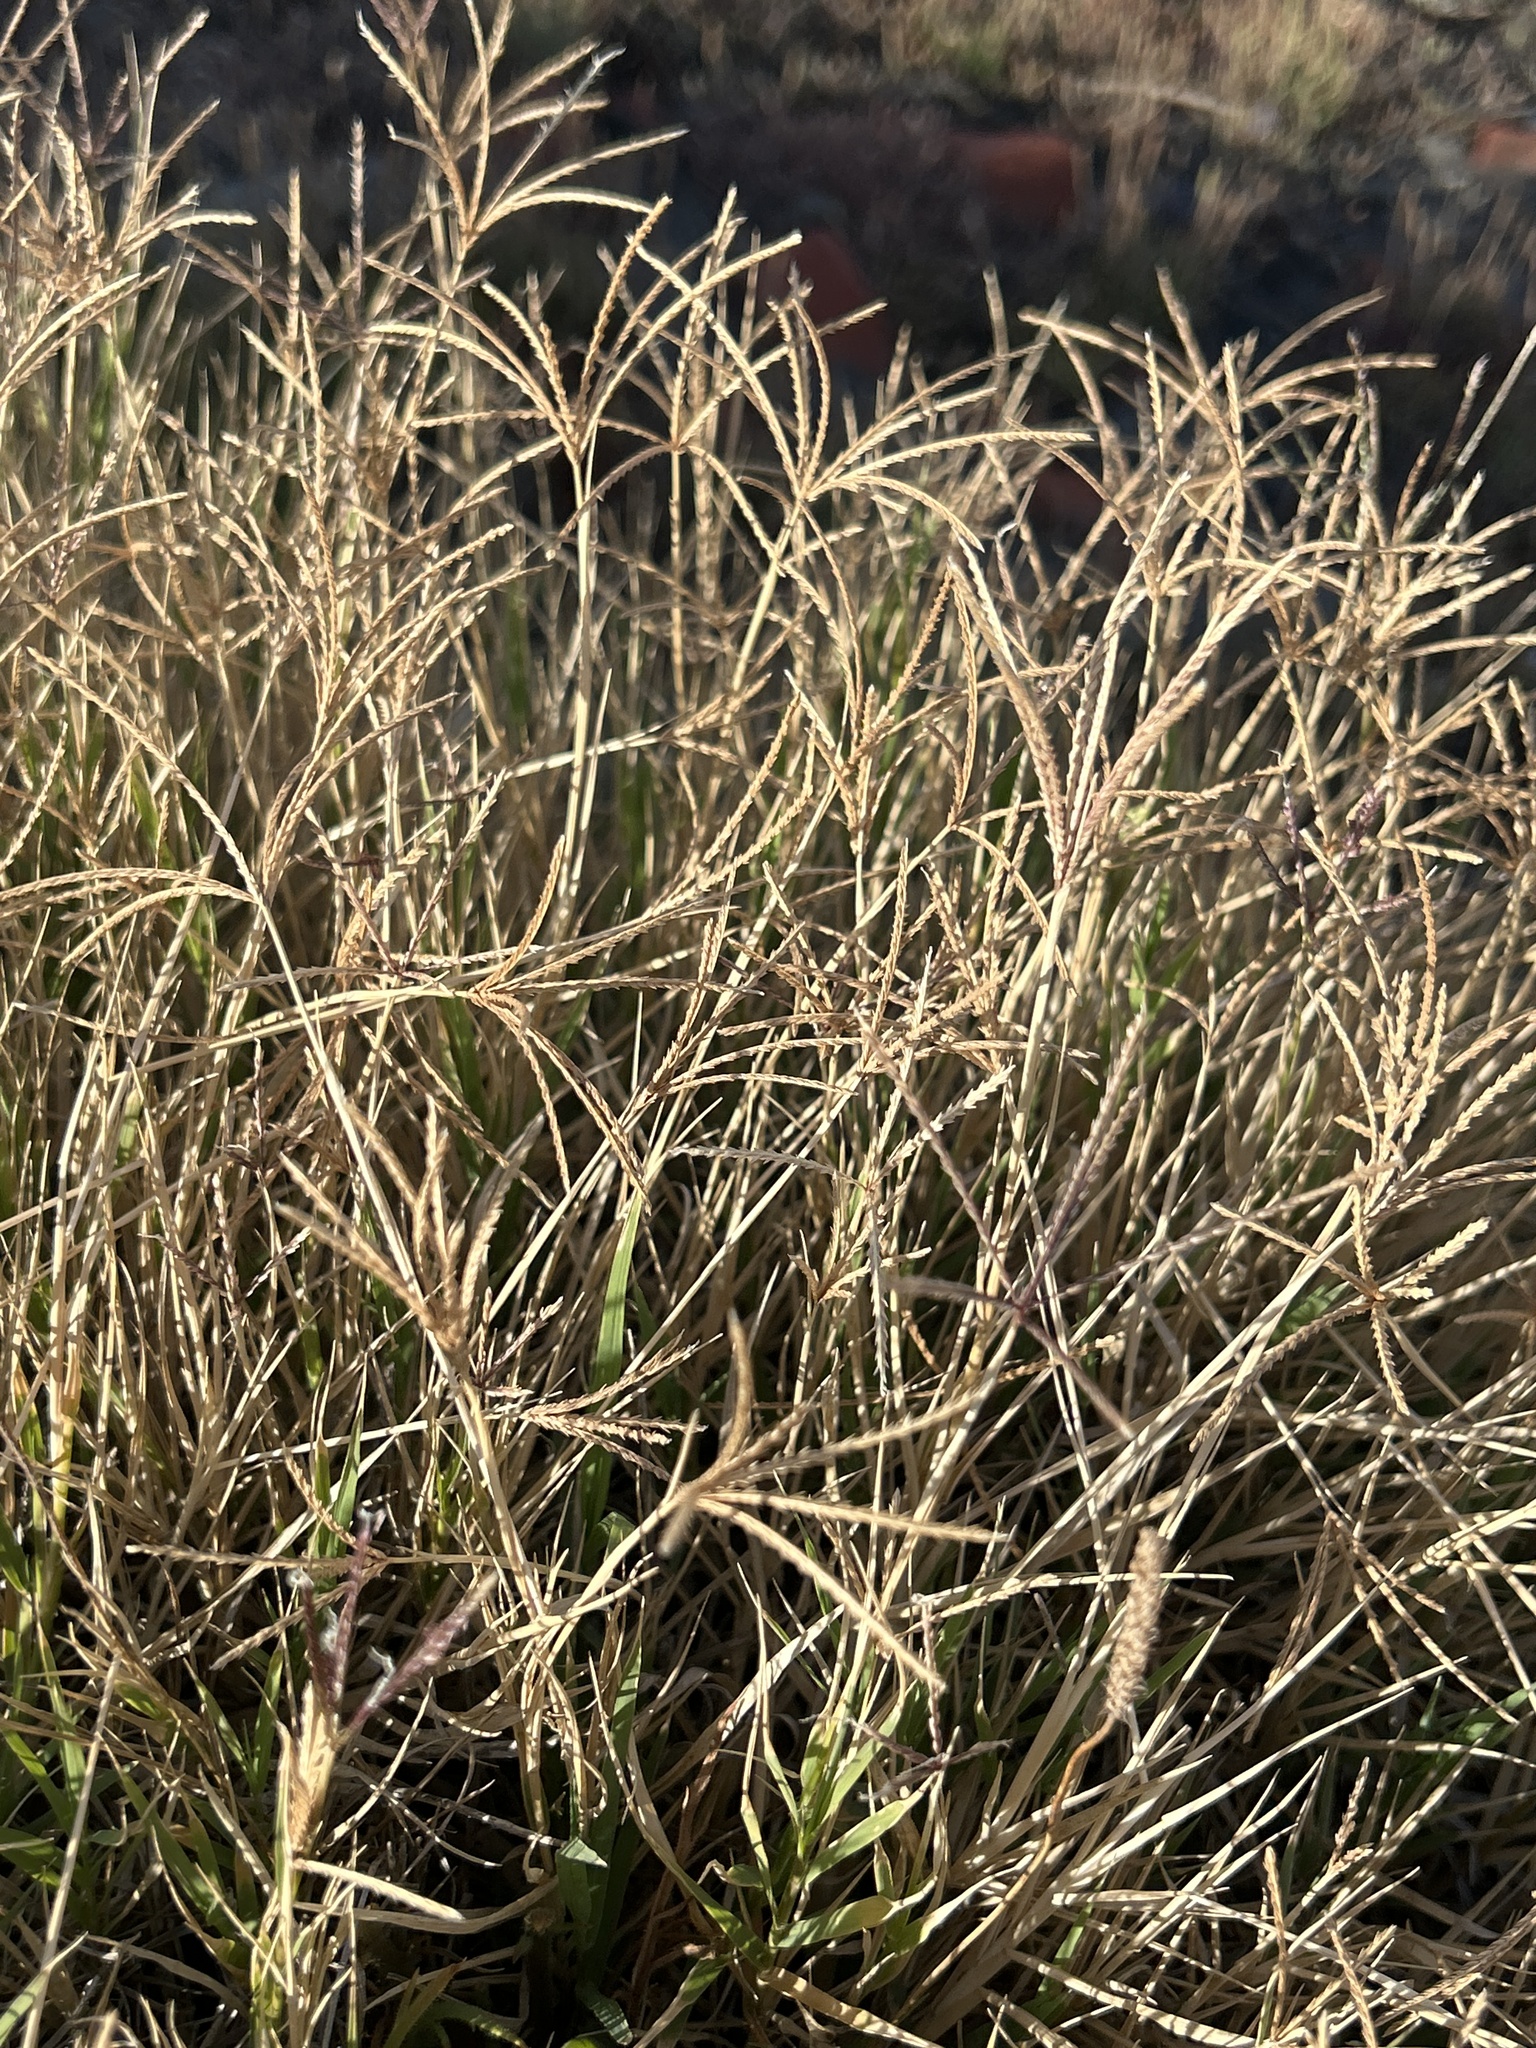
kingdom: Plantae
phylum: Tracheophyta
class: Liliopsida
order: Poales
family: Poaceae
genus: Cynodon
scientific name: Cynodon dactylon
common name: Bermuda grass
